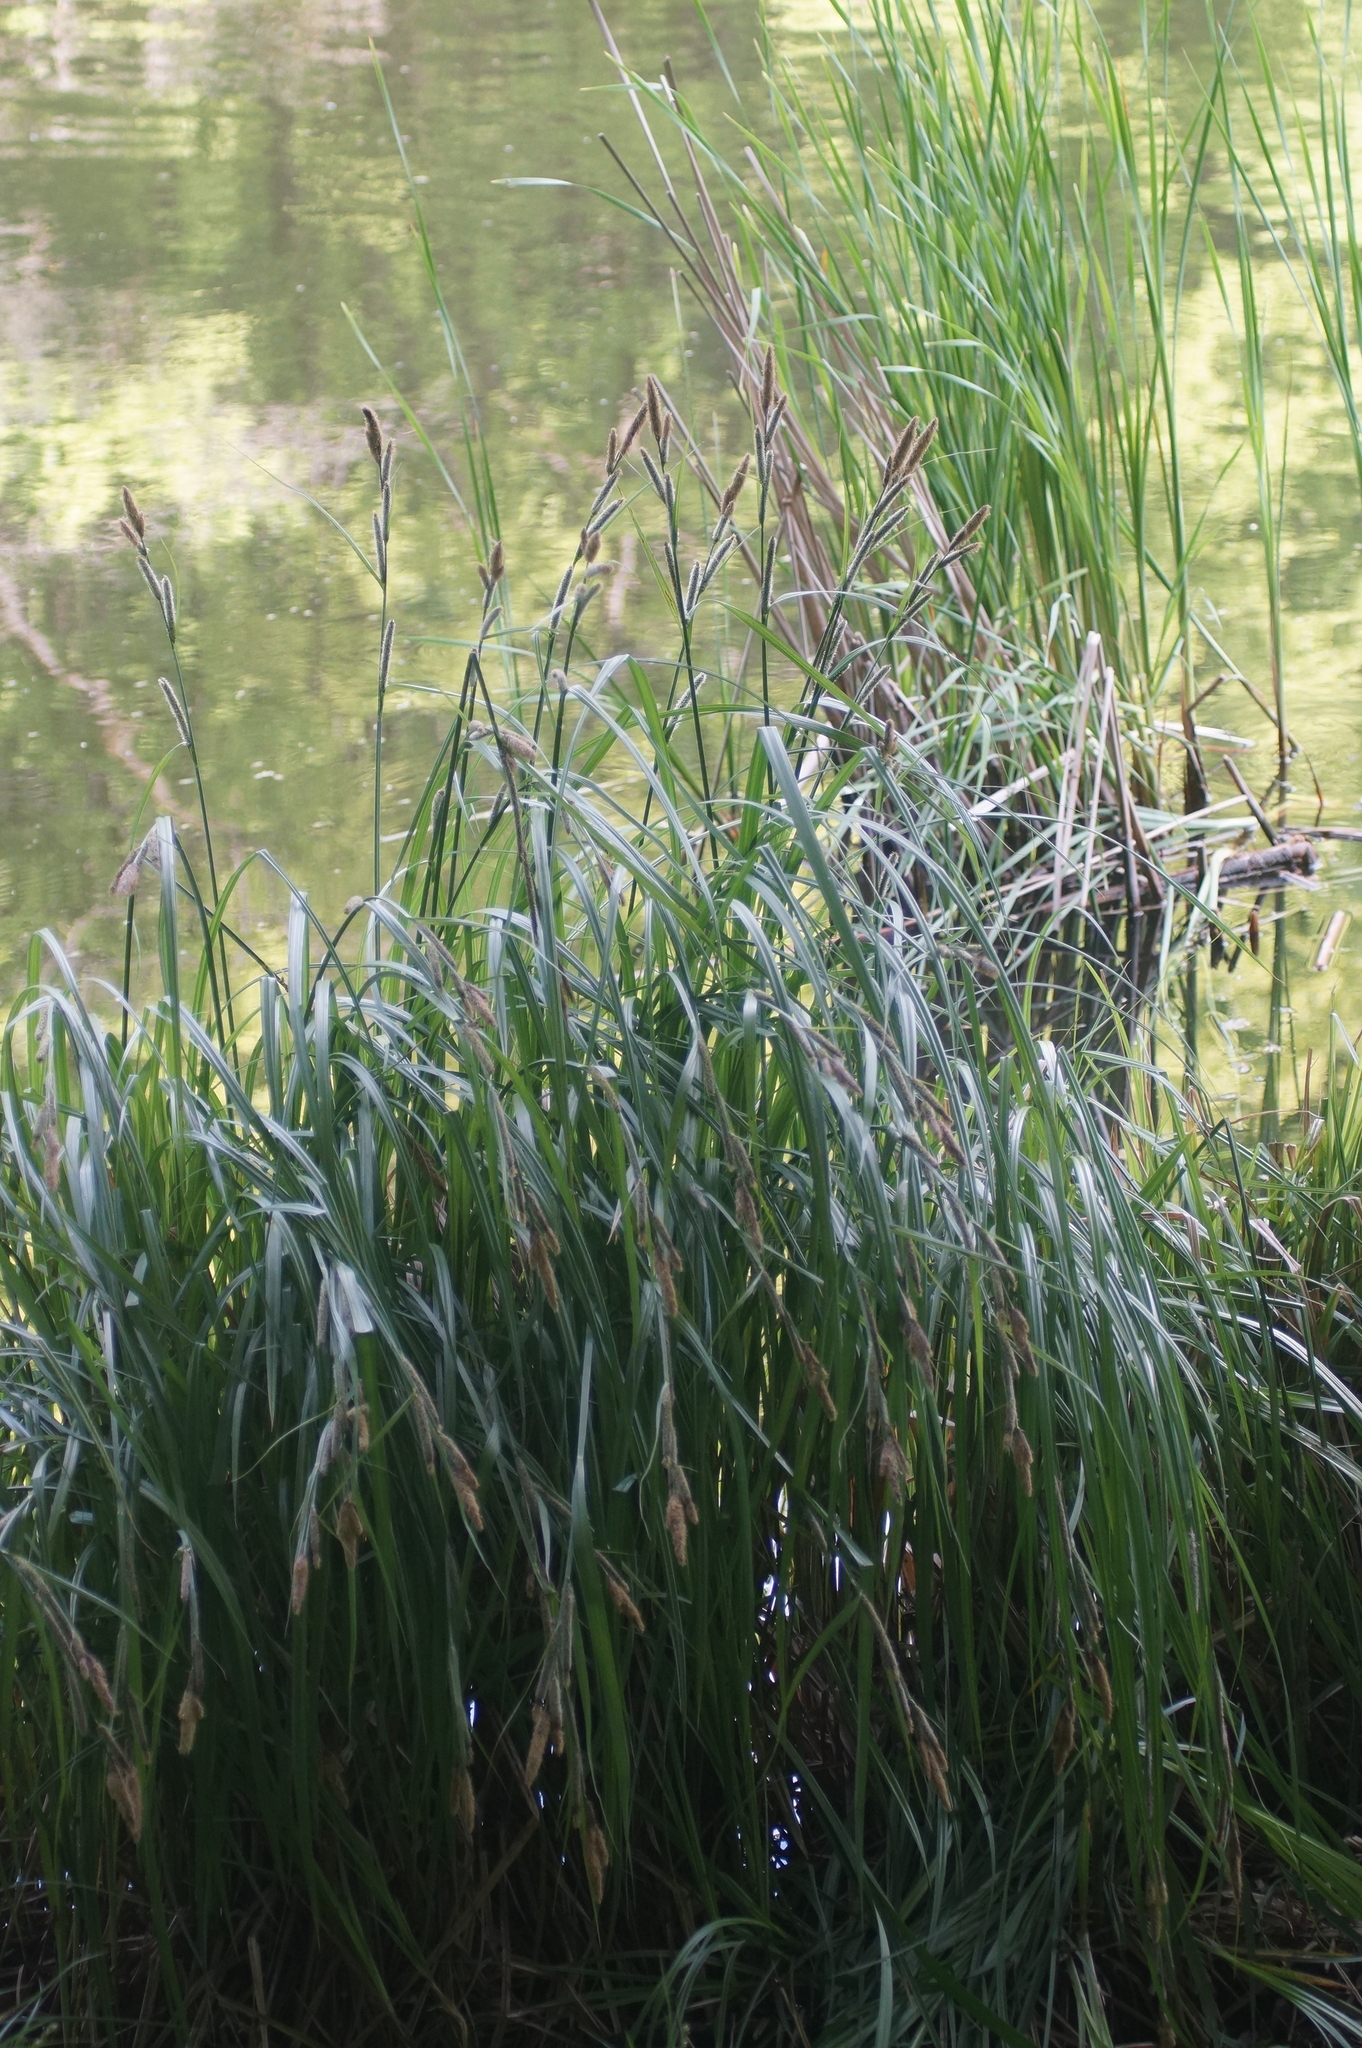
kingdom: Plantae
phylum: Tracheophyta
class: Liliopsida
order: Poales
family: Cyperaceae
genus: Carex
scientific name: Carex acutiformis
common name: Lesser pond-sedge
